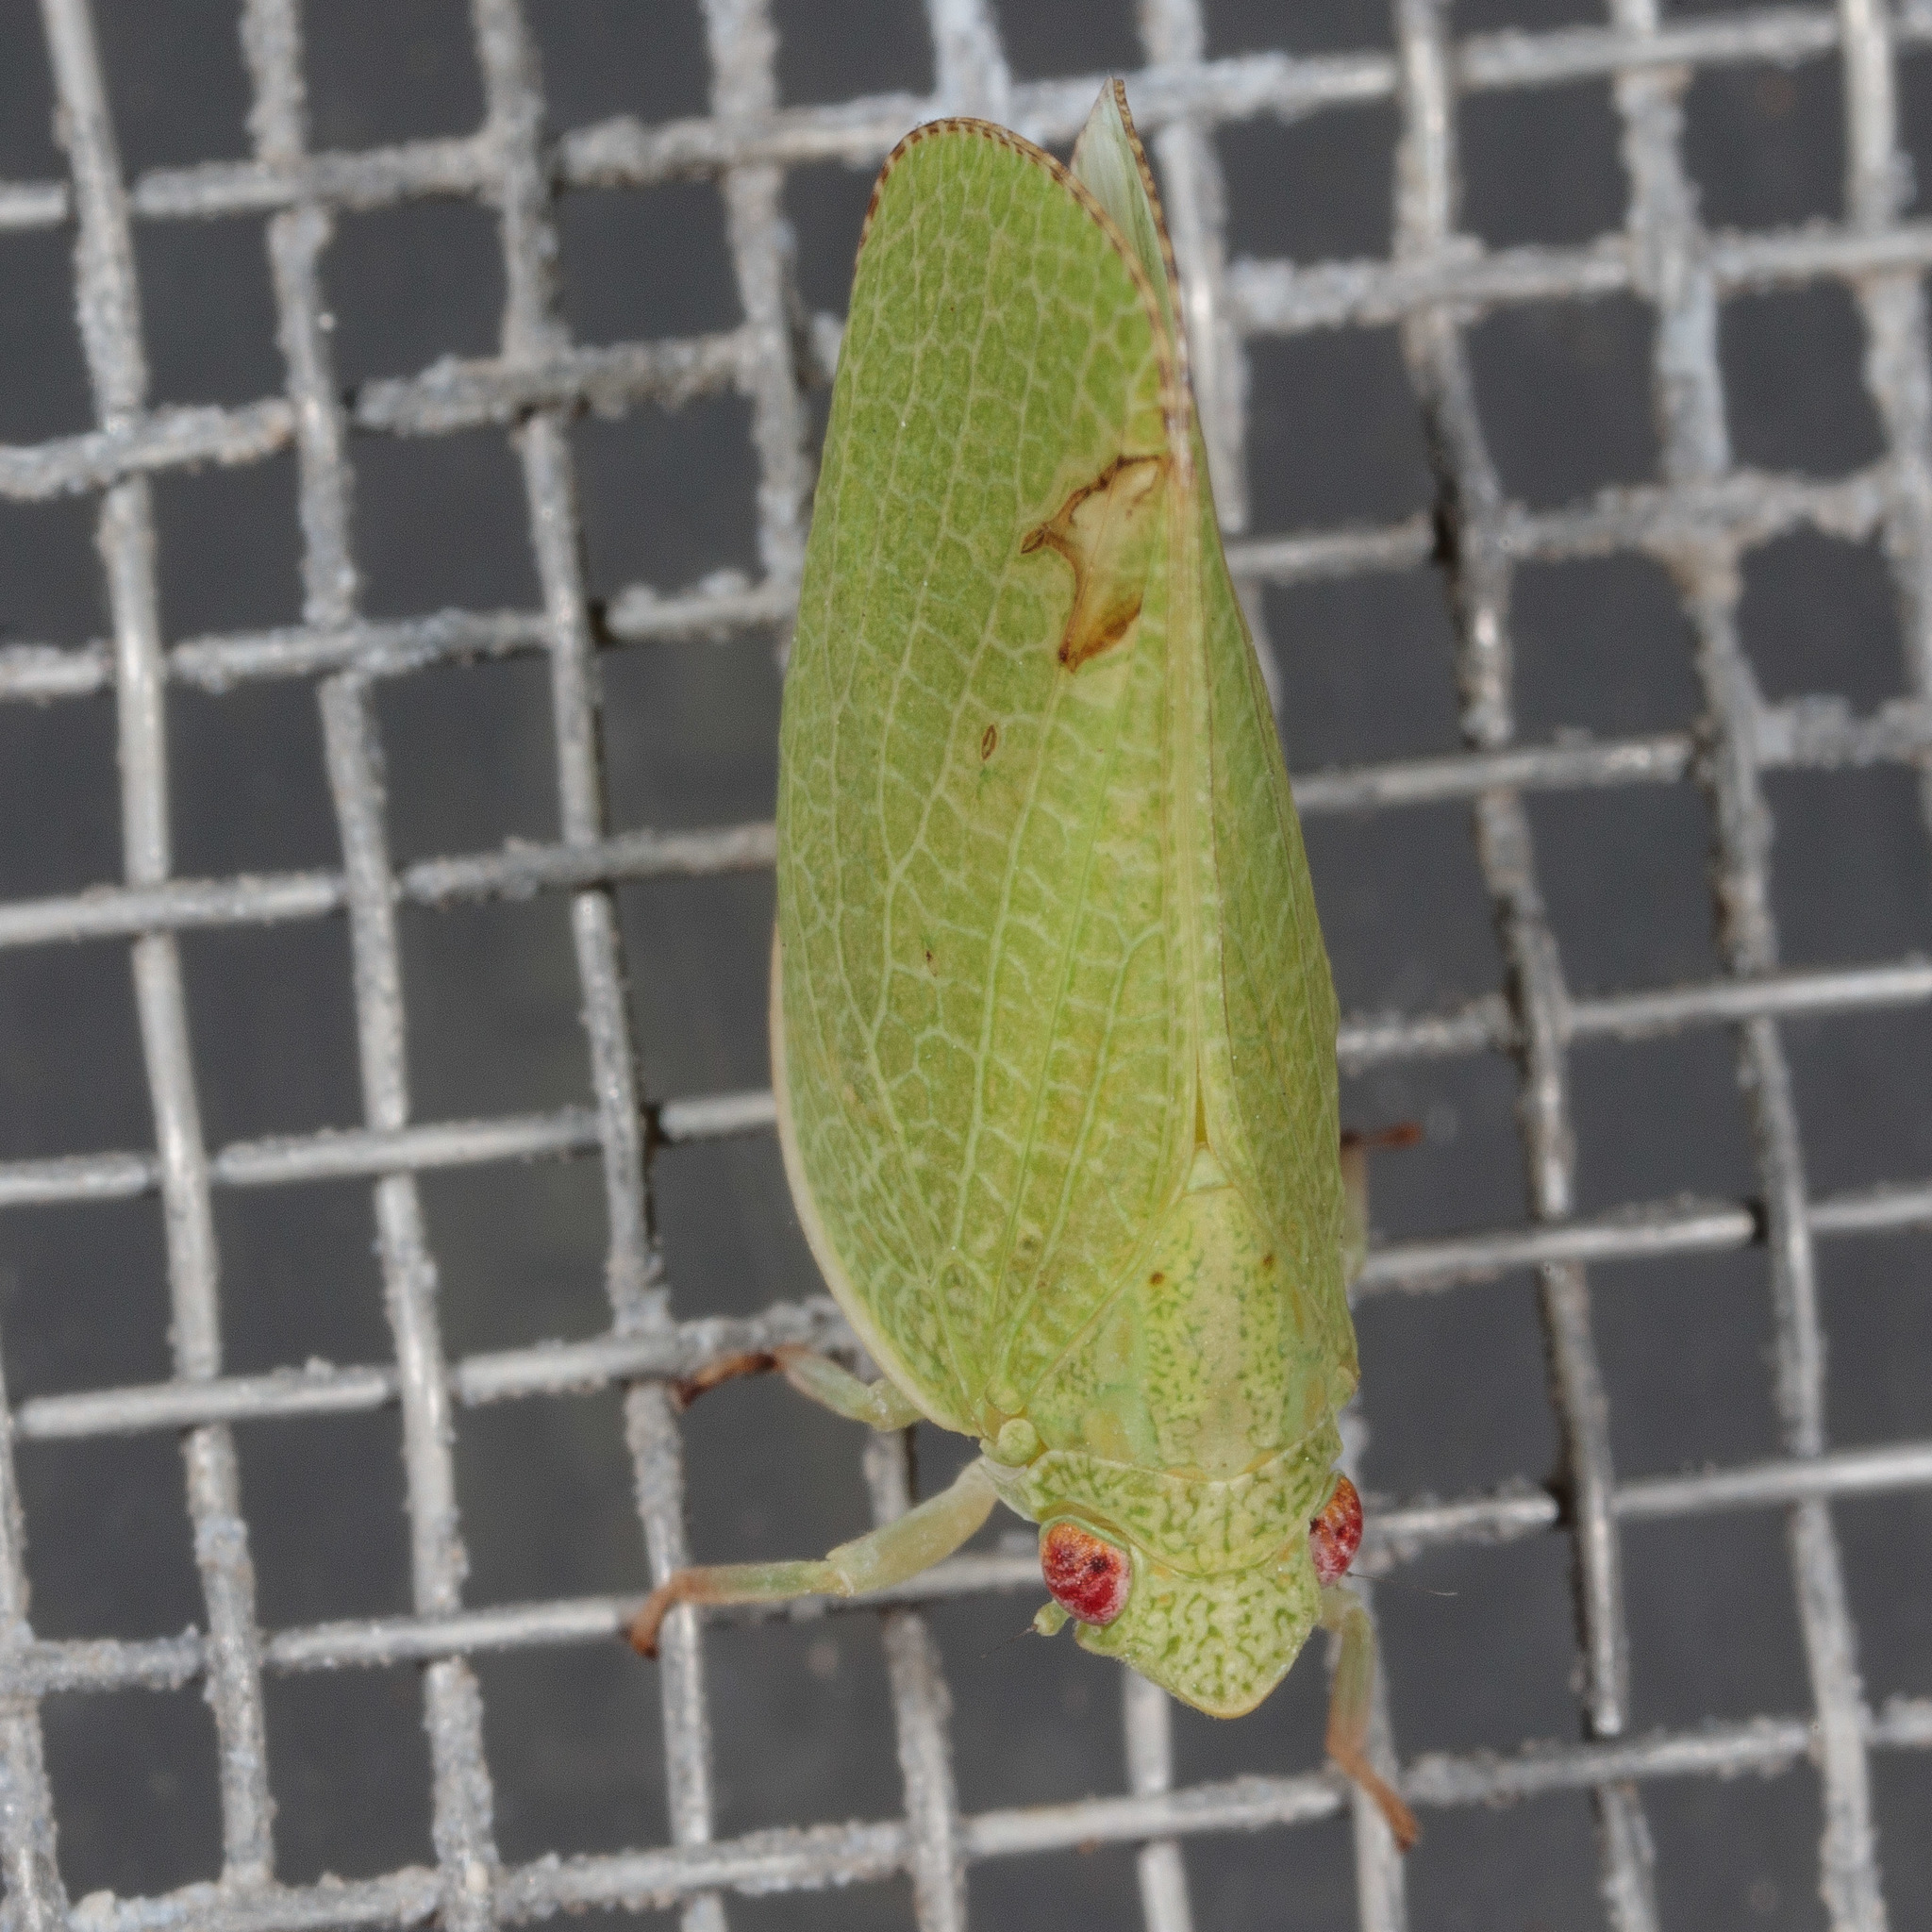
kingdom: Animalia
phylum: Arthropoda
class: Insecta
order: Hemiptera
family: Acanaloniidae
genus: Acanalonia
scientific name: Acanalonia conica
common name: Green cone-headed planthopper
